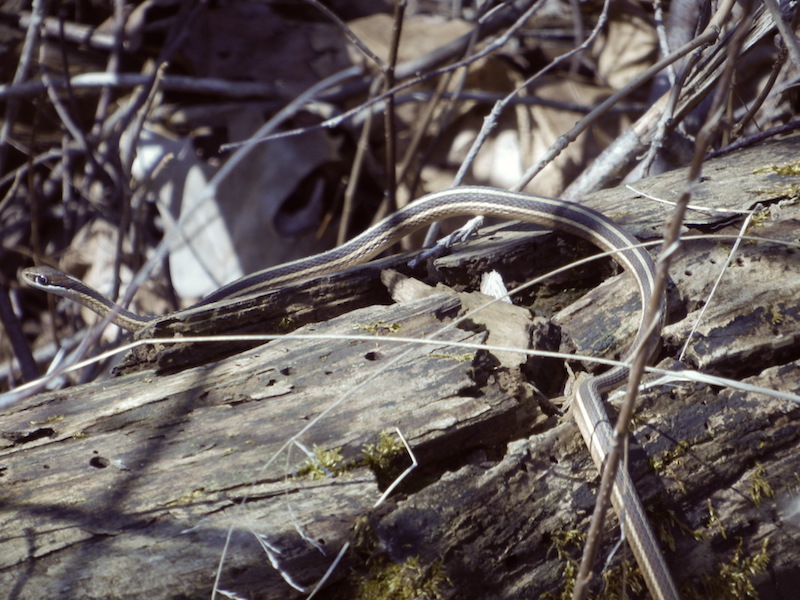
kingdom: Animalia
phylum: Chordata
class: Squamata
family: Colubridae
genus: Thamnophis
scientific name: Thamnophis saurita
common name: Eastern ribbonsnake
